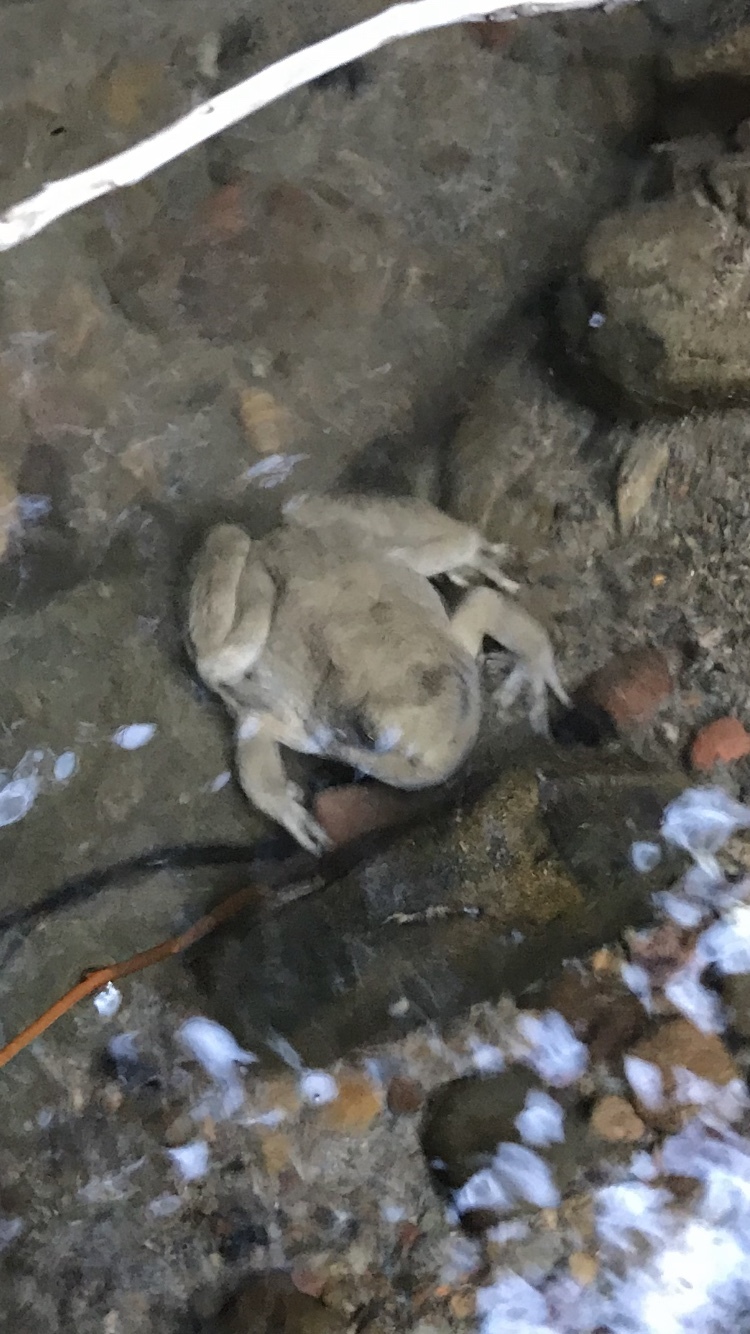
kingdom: Animalia
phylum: Chordata
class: Amphibia
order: Anura
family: Ranidae
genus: Rana
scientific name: Rana boylii
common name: Foothill yellow-legged frog
